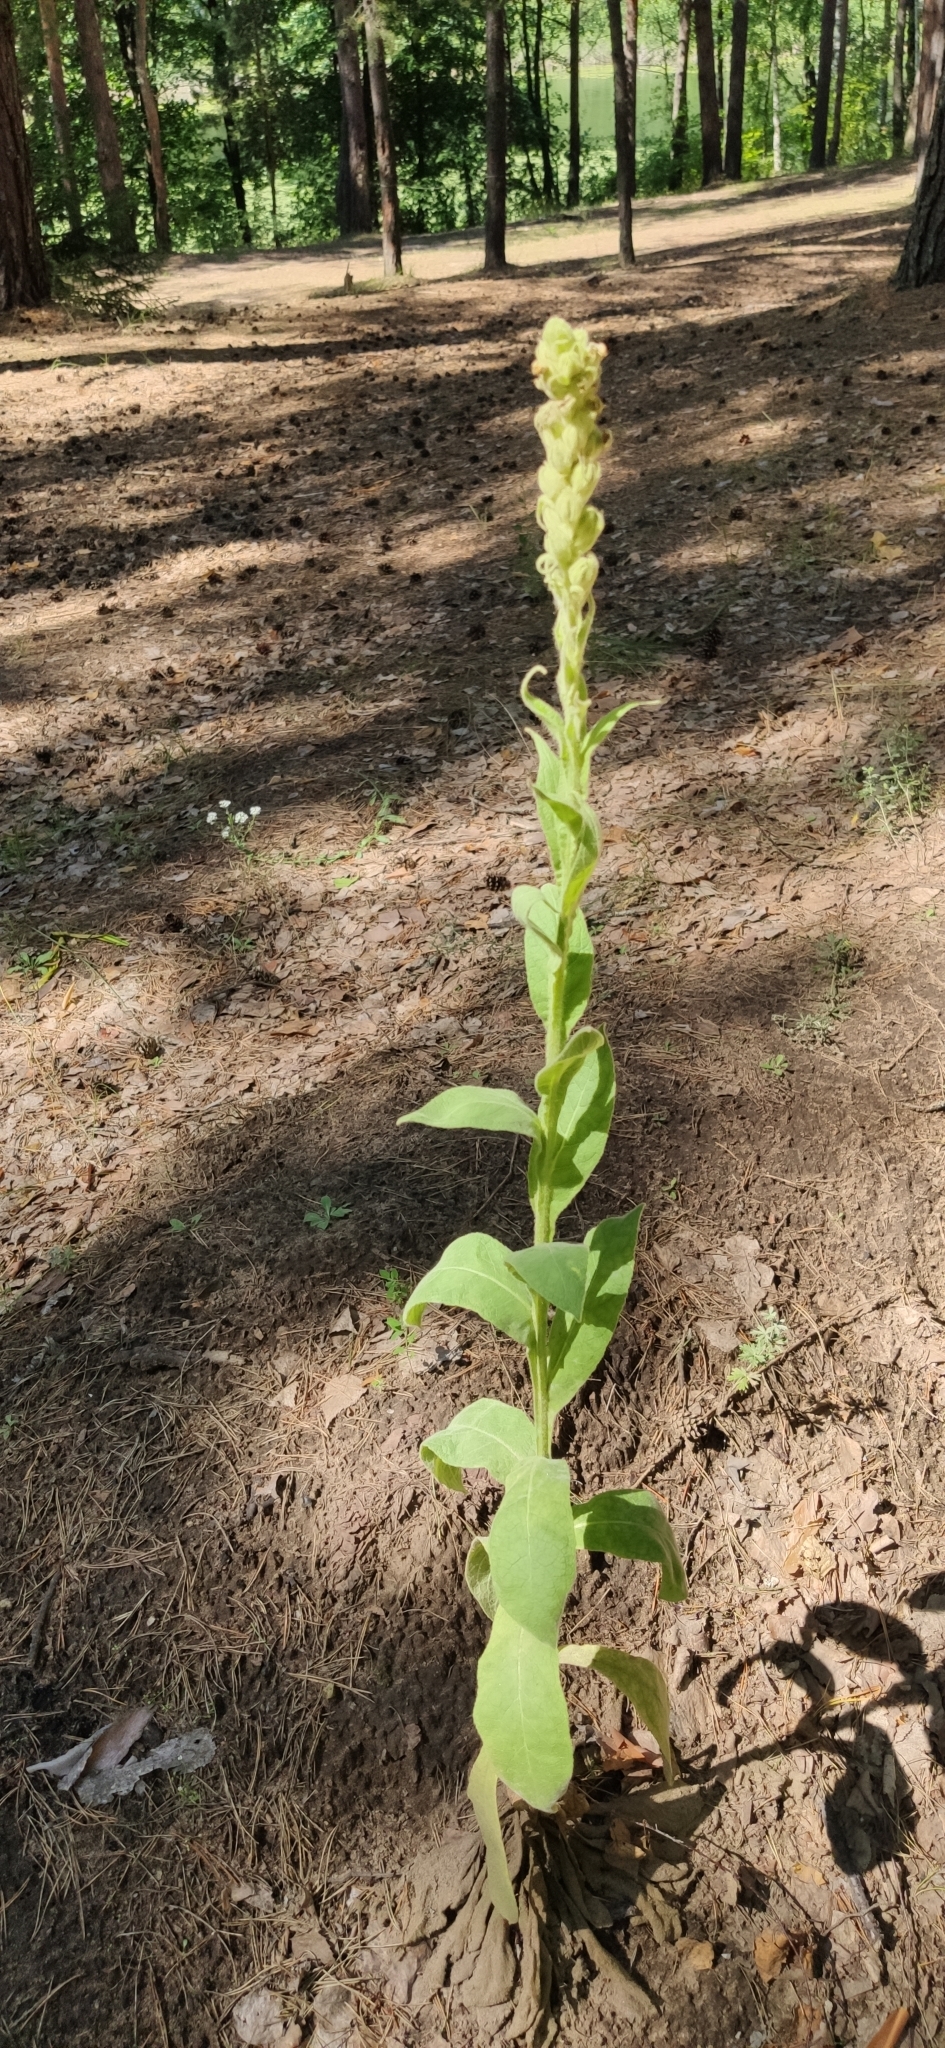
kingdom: Plantae
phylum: Tracheophyta
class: Magnoliopsida
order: Lamiales
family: Scrophulariaceae
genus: Verbascum
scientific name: Verbascum thapsus
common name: Common mullein
